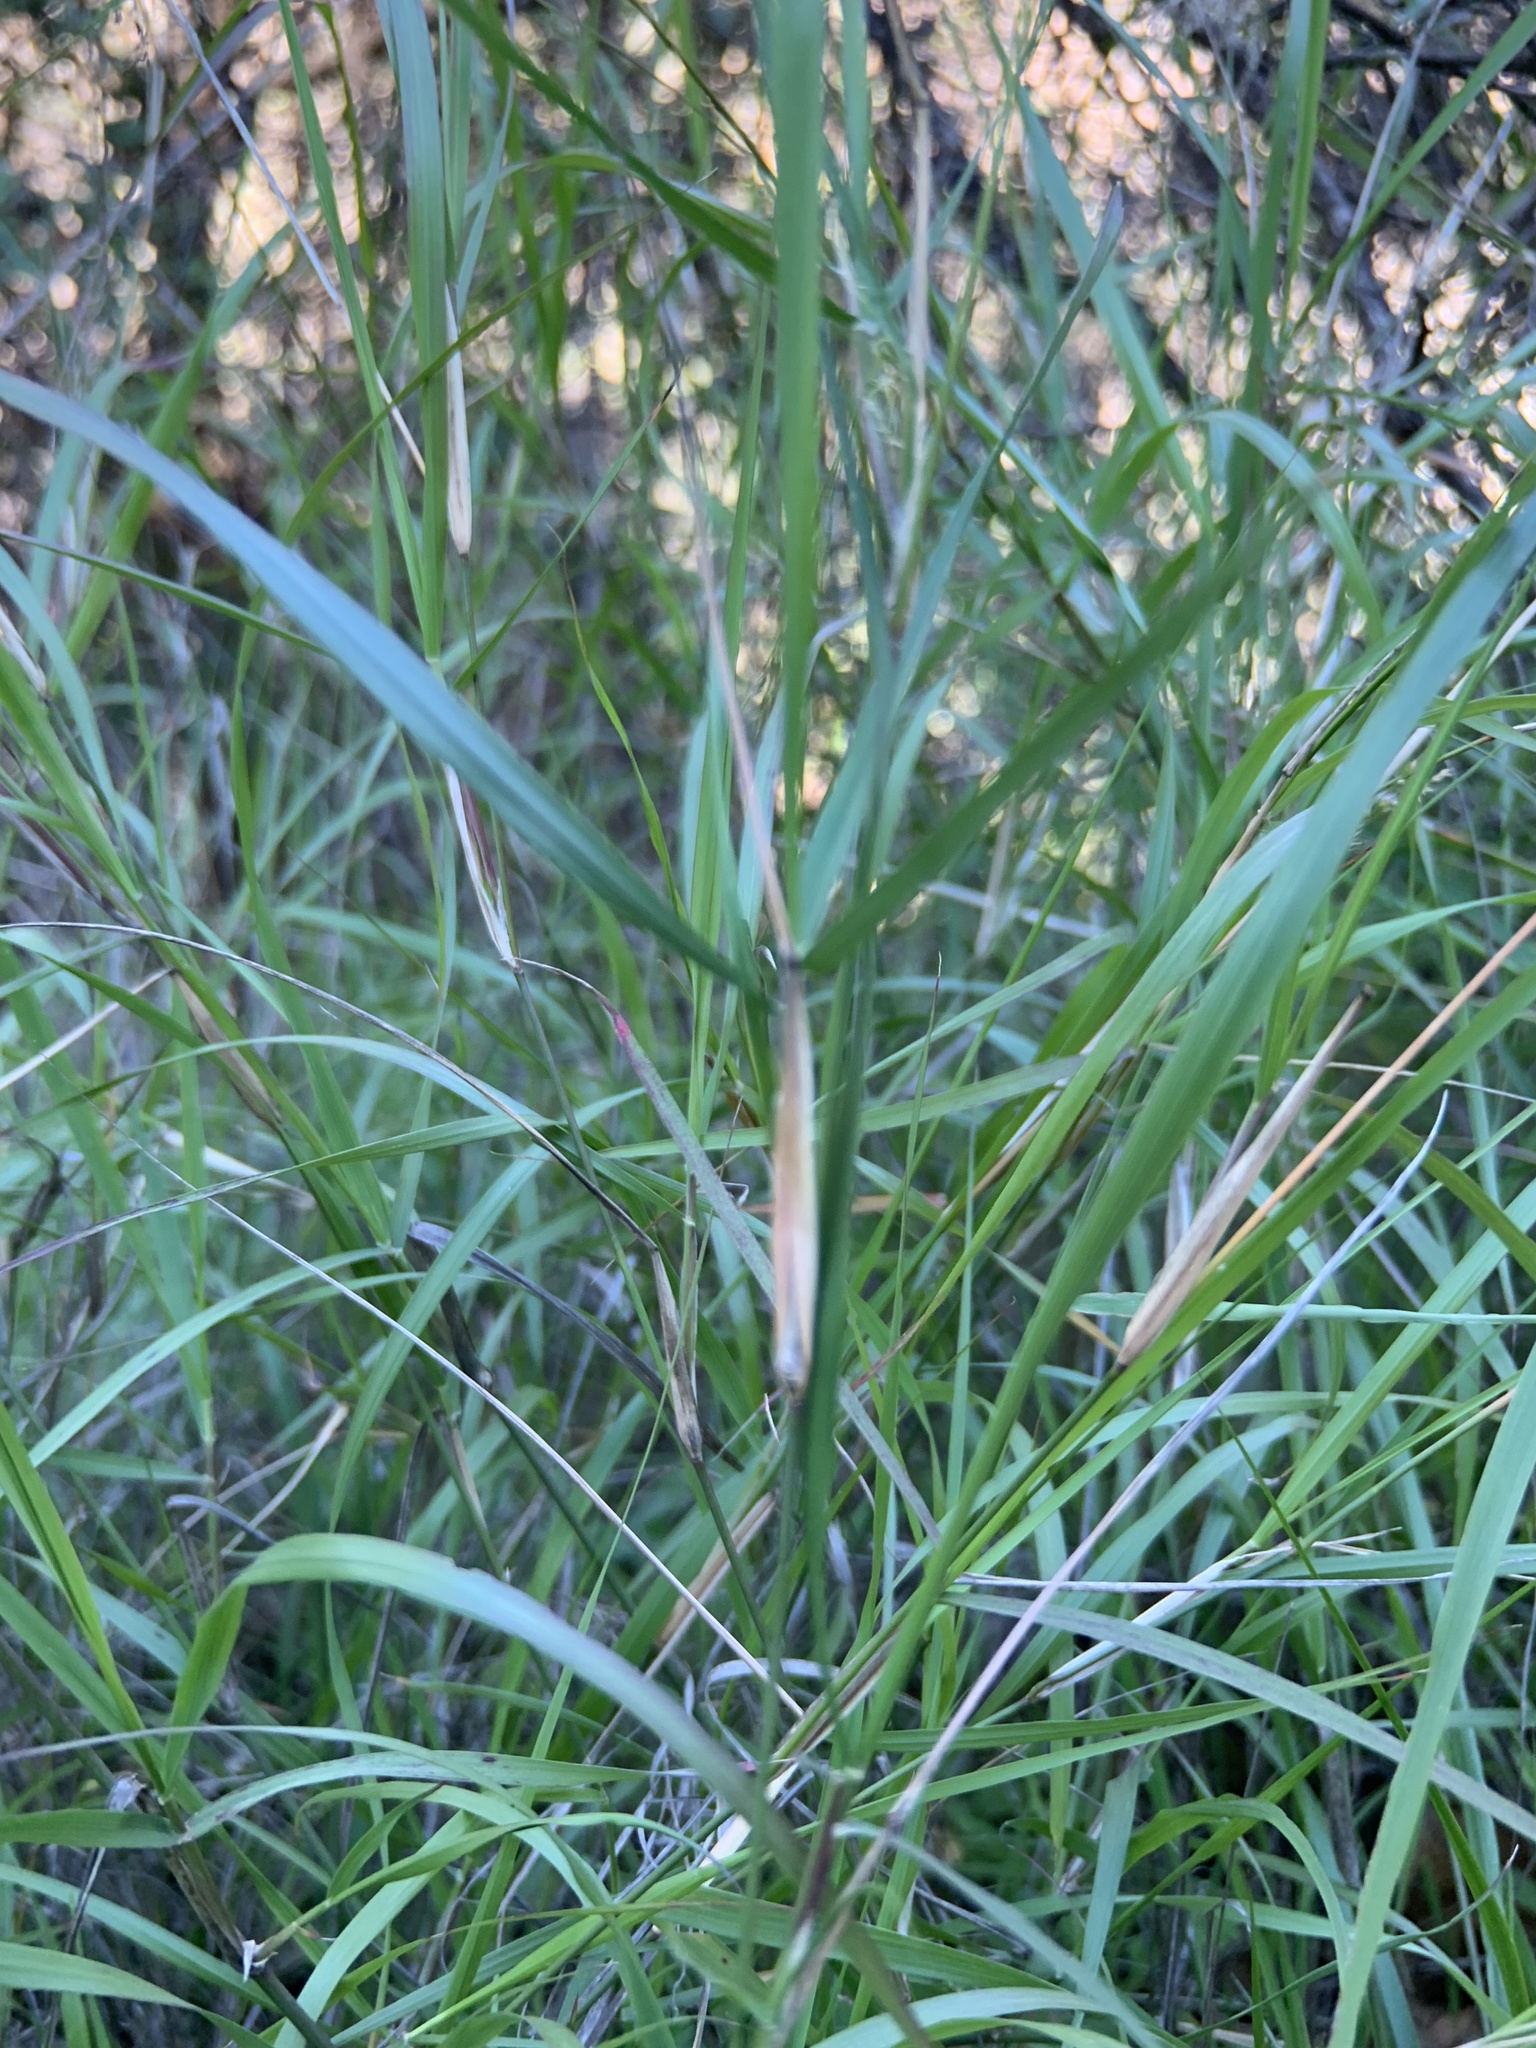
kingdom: Plantae
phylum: Tracheophyta
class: Liliopsida
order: Poales
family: Poaceae
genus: Oloptum
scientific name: Oloptum miliaceum
